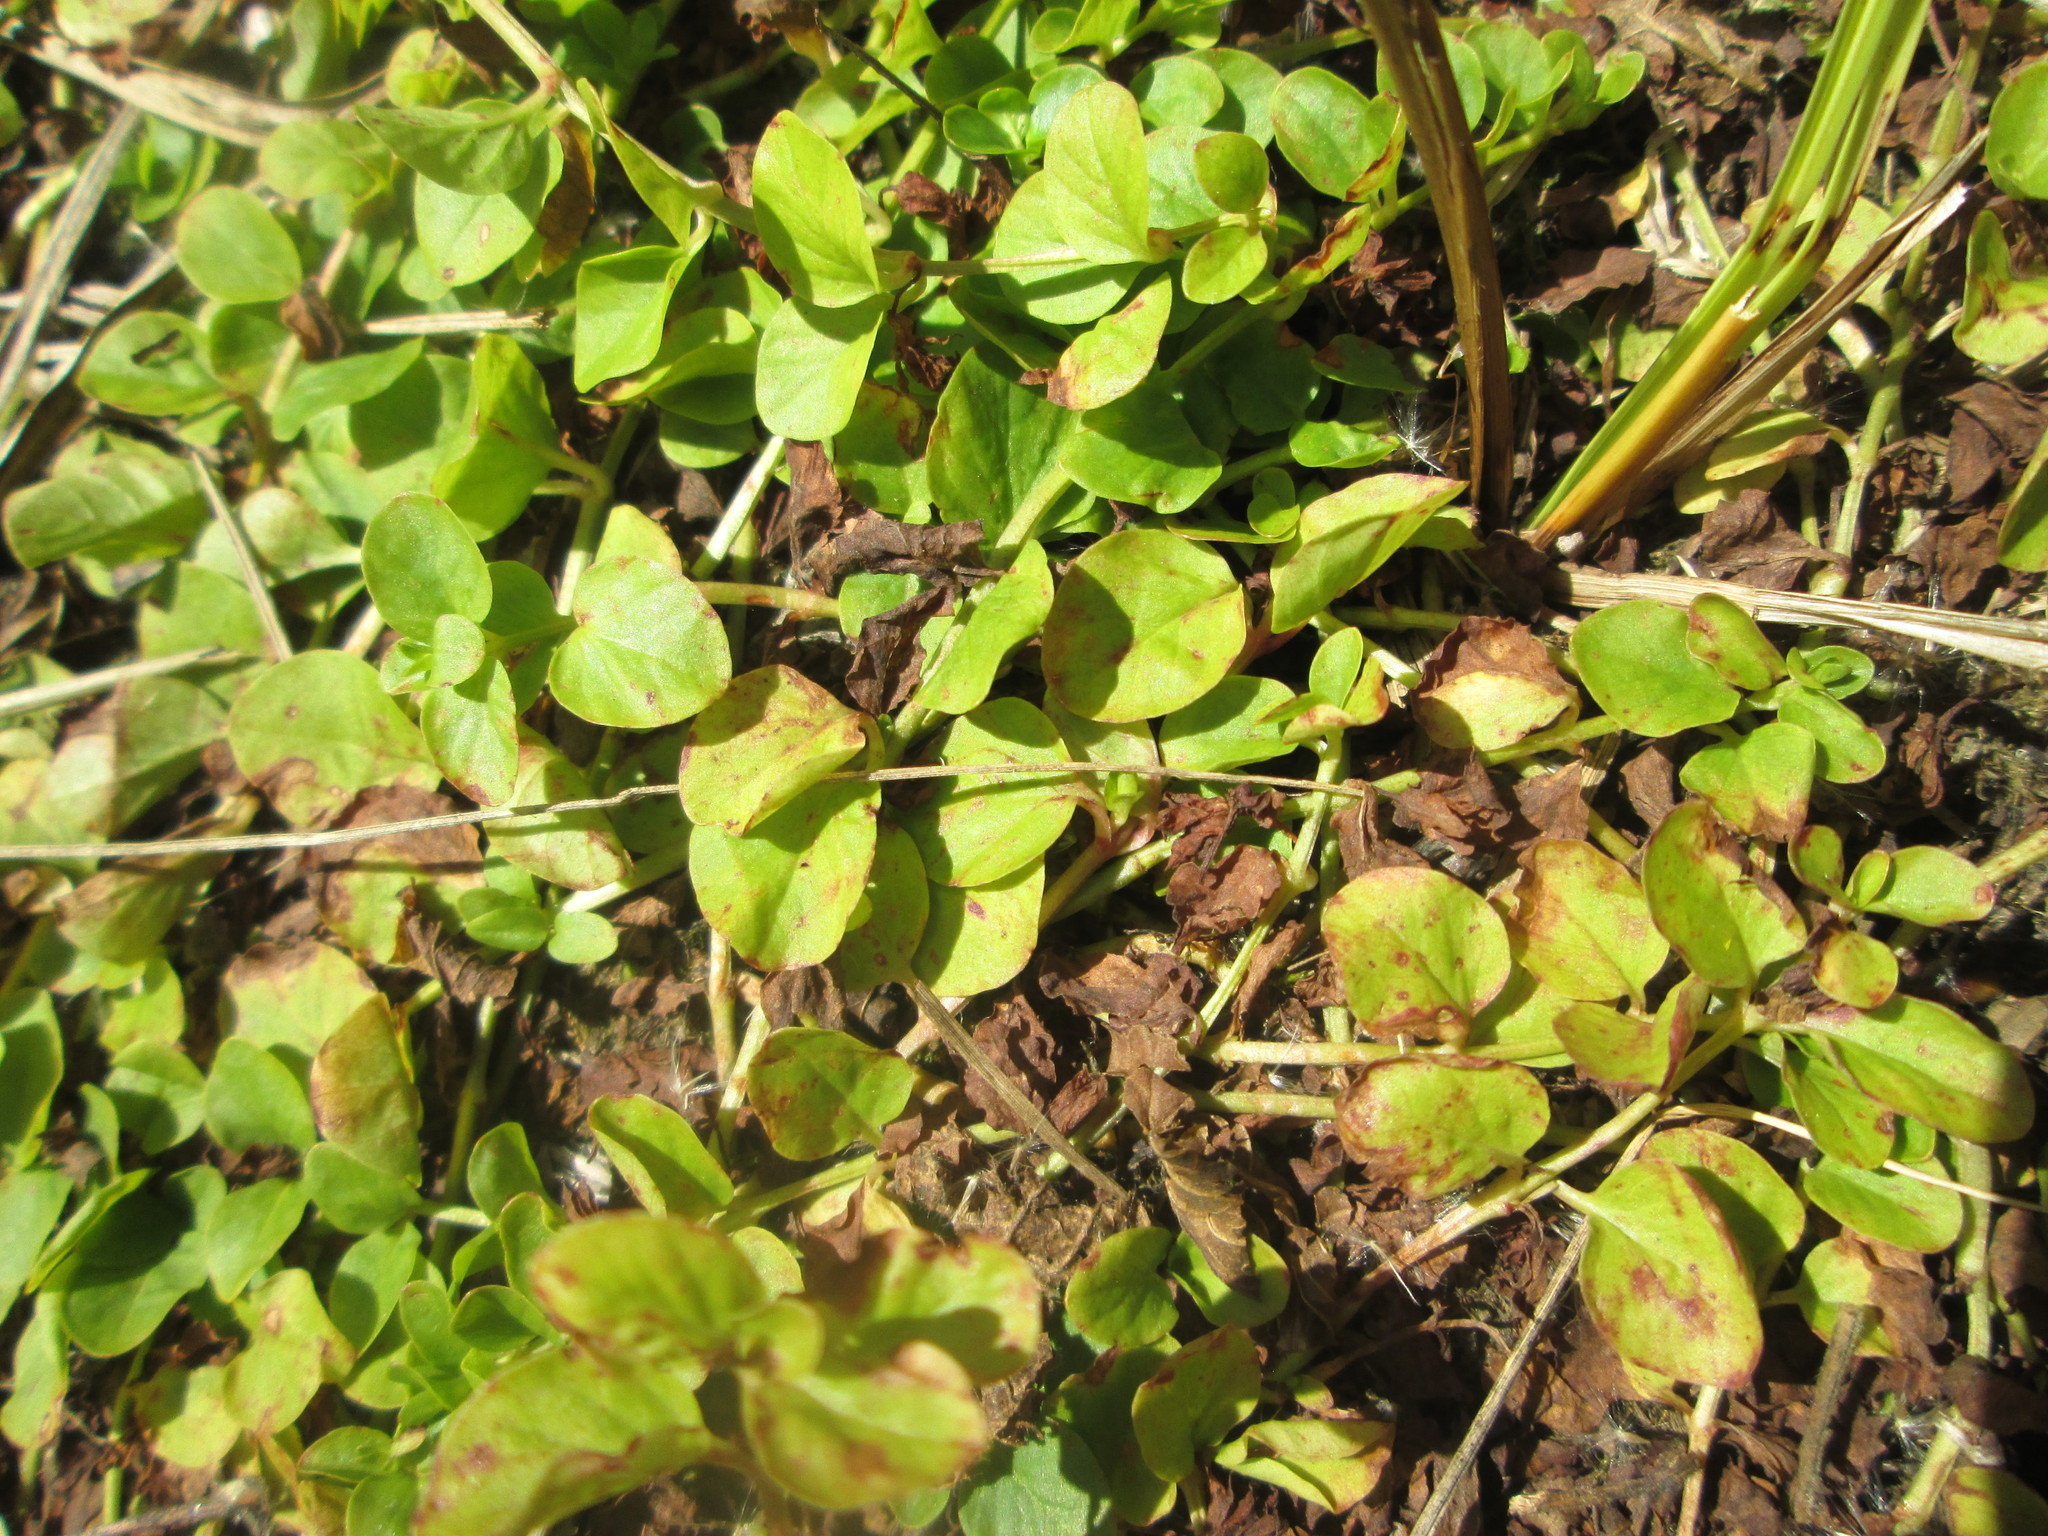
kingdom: Plantae
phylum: Tracheophyta
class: Magnoliopsida
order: Ericales
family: Primulaceae
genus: Lysimachia
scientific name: Lysimachia nummularia
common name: Moneywort
